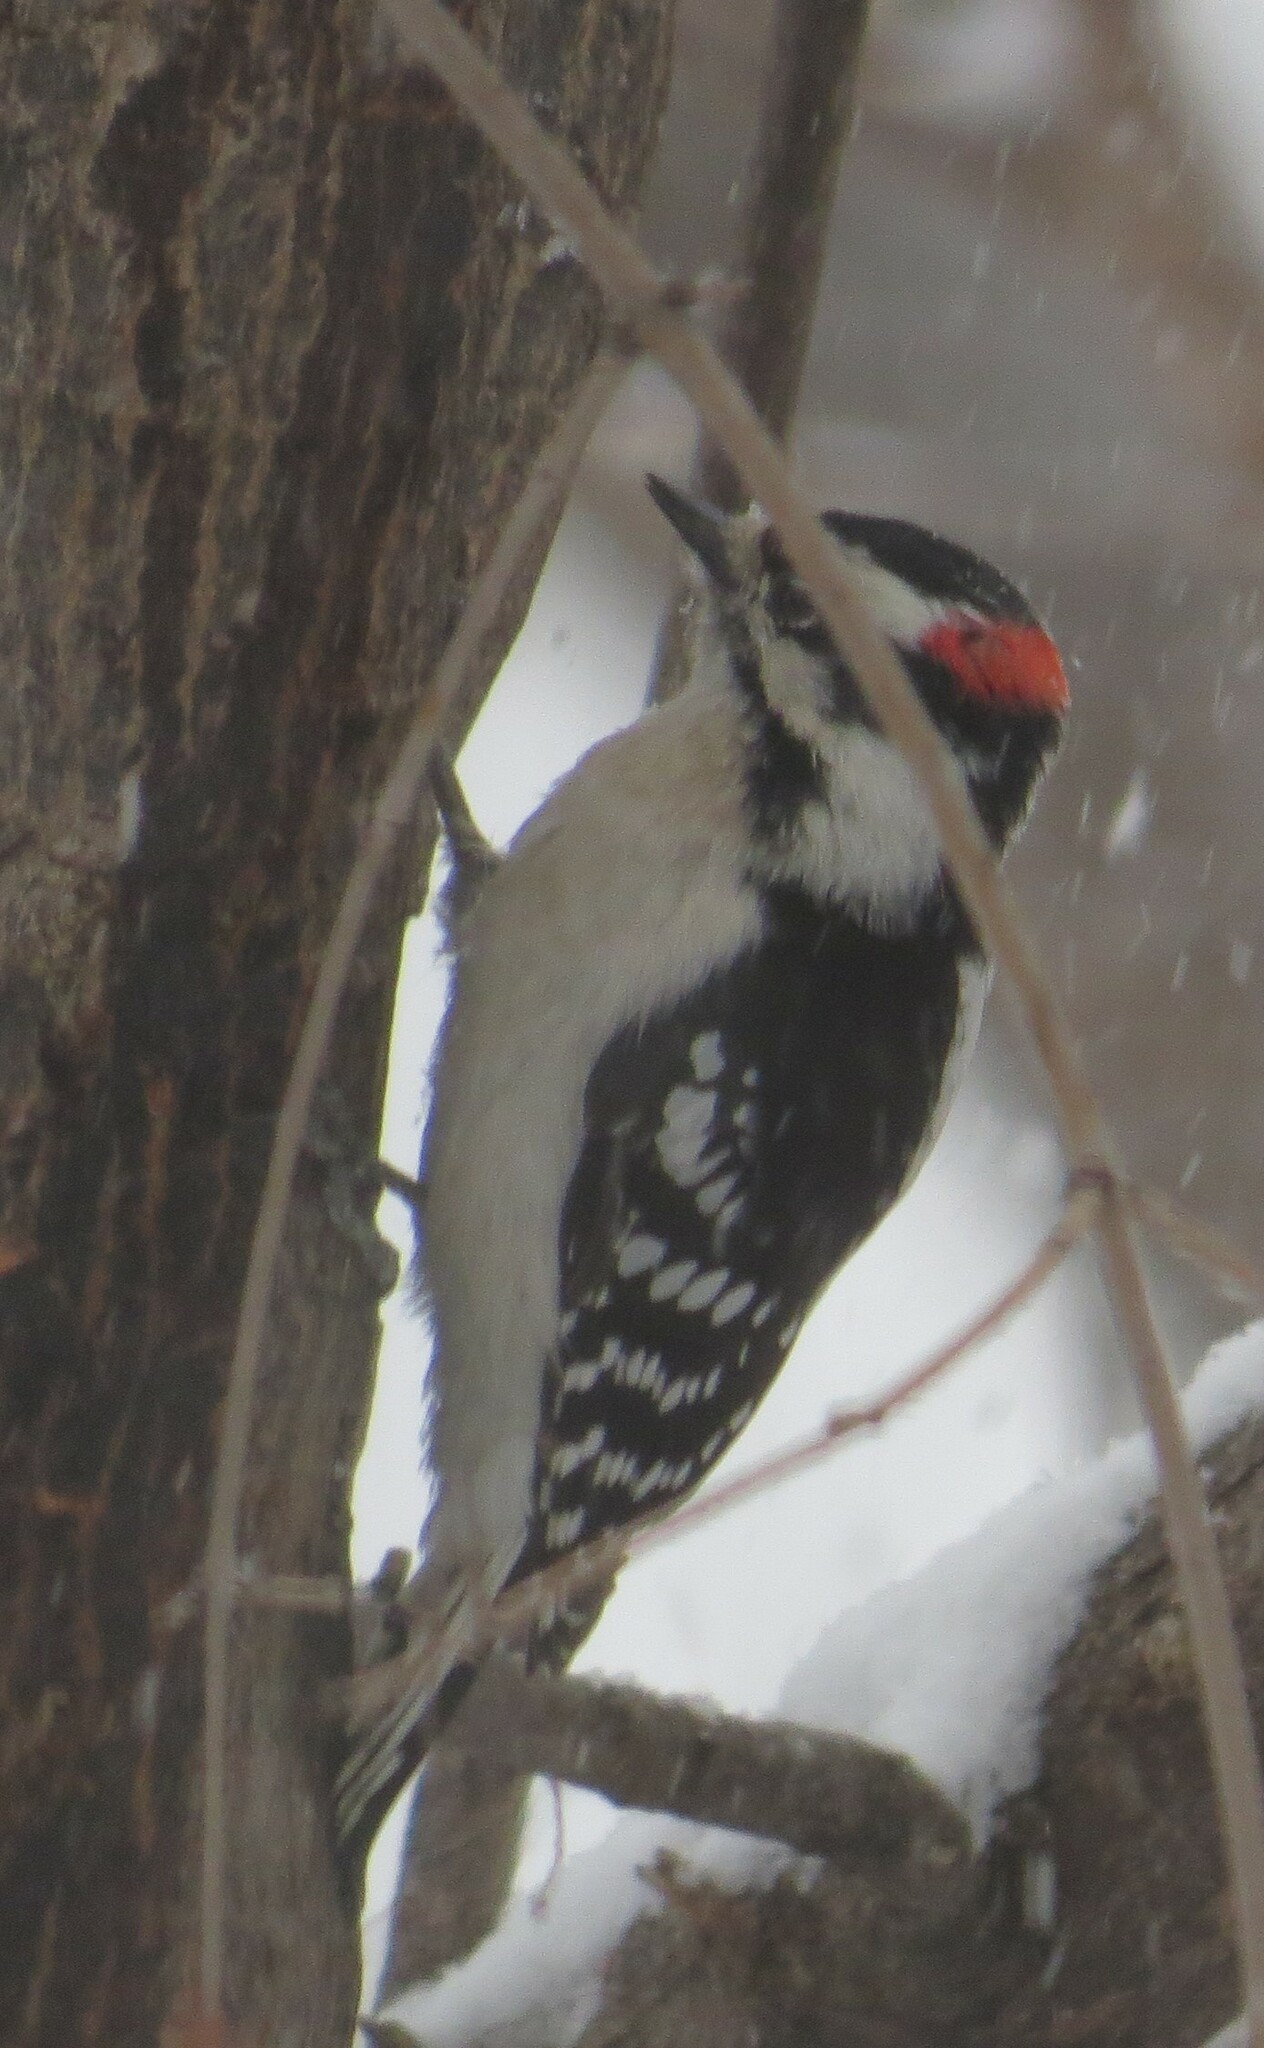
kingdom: Animalia
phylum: Chordata
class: Aves
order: Piciformes
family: Picidae
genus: Dryobates
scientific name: Dryobates pubescens
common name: Downy woodpecker
